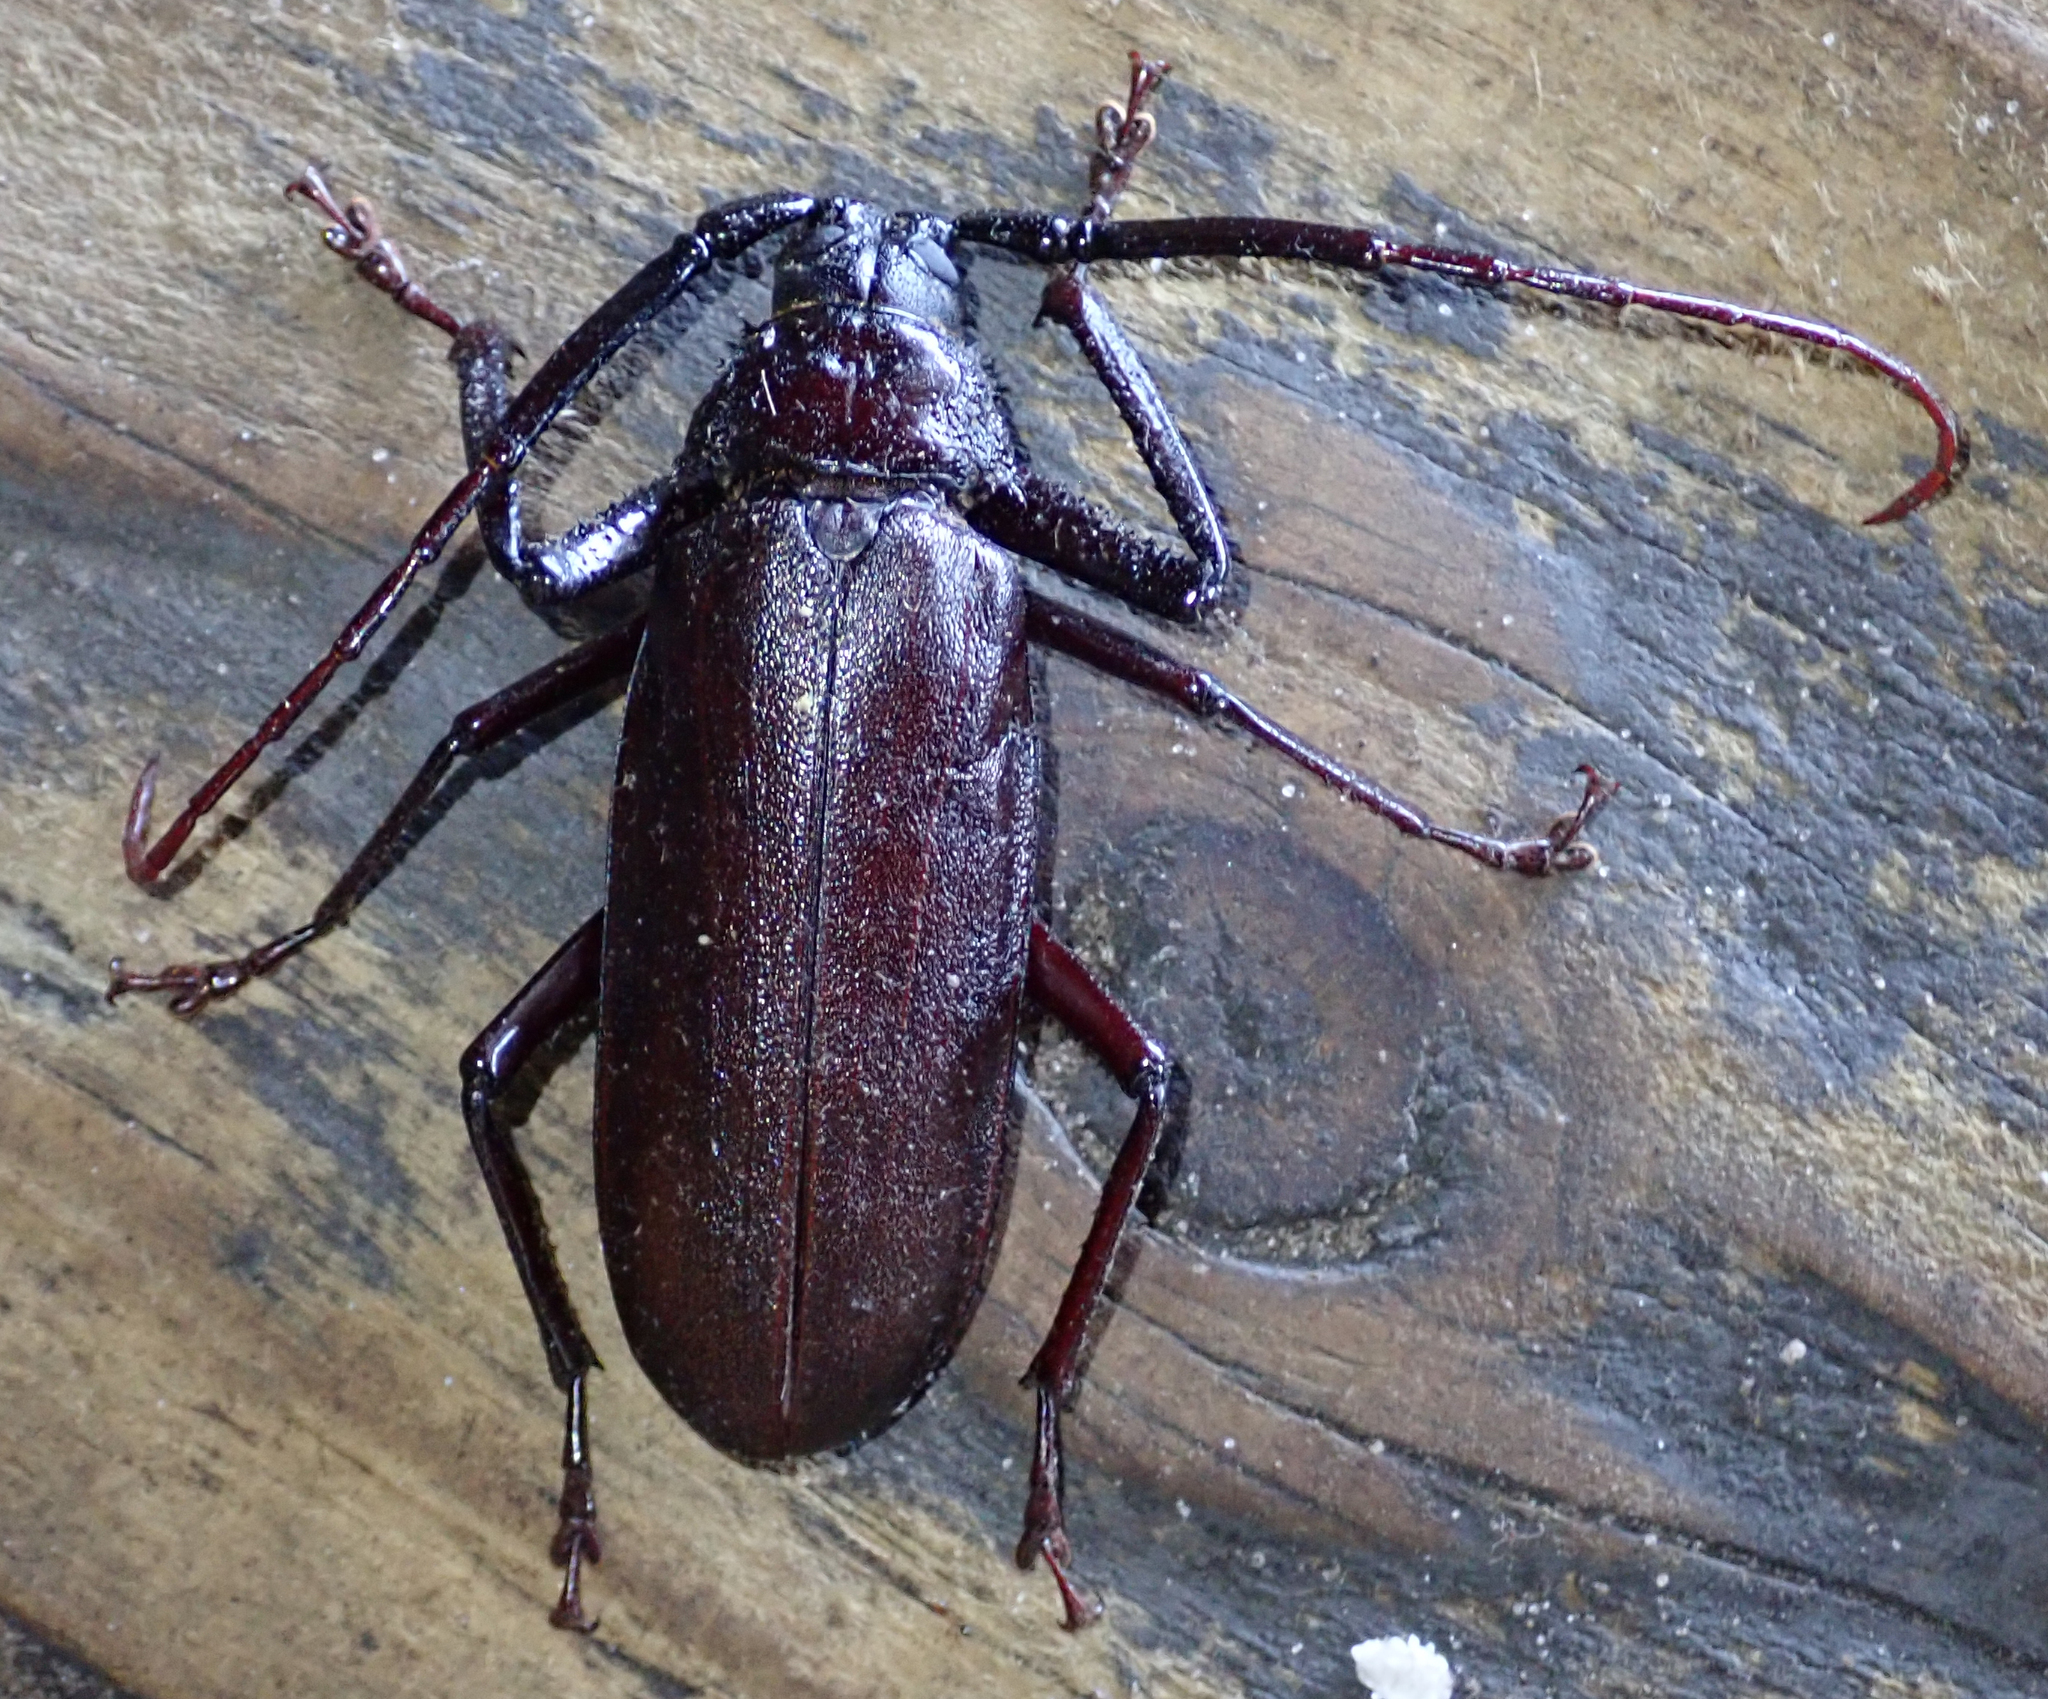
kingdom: Animalia
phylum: Arthropoda
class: Insecta
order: Coleoptera
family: Cerambycidae
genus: Macrotoma
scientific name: Macrotoma palmata
